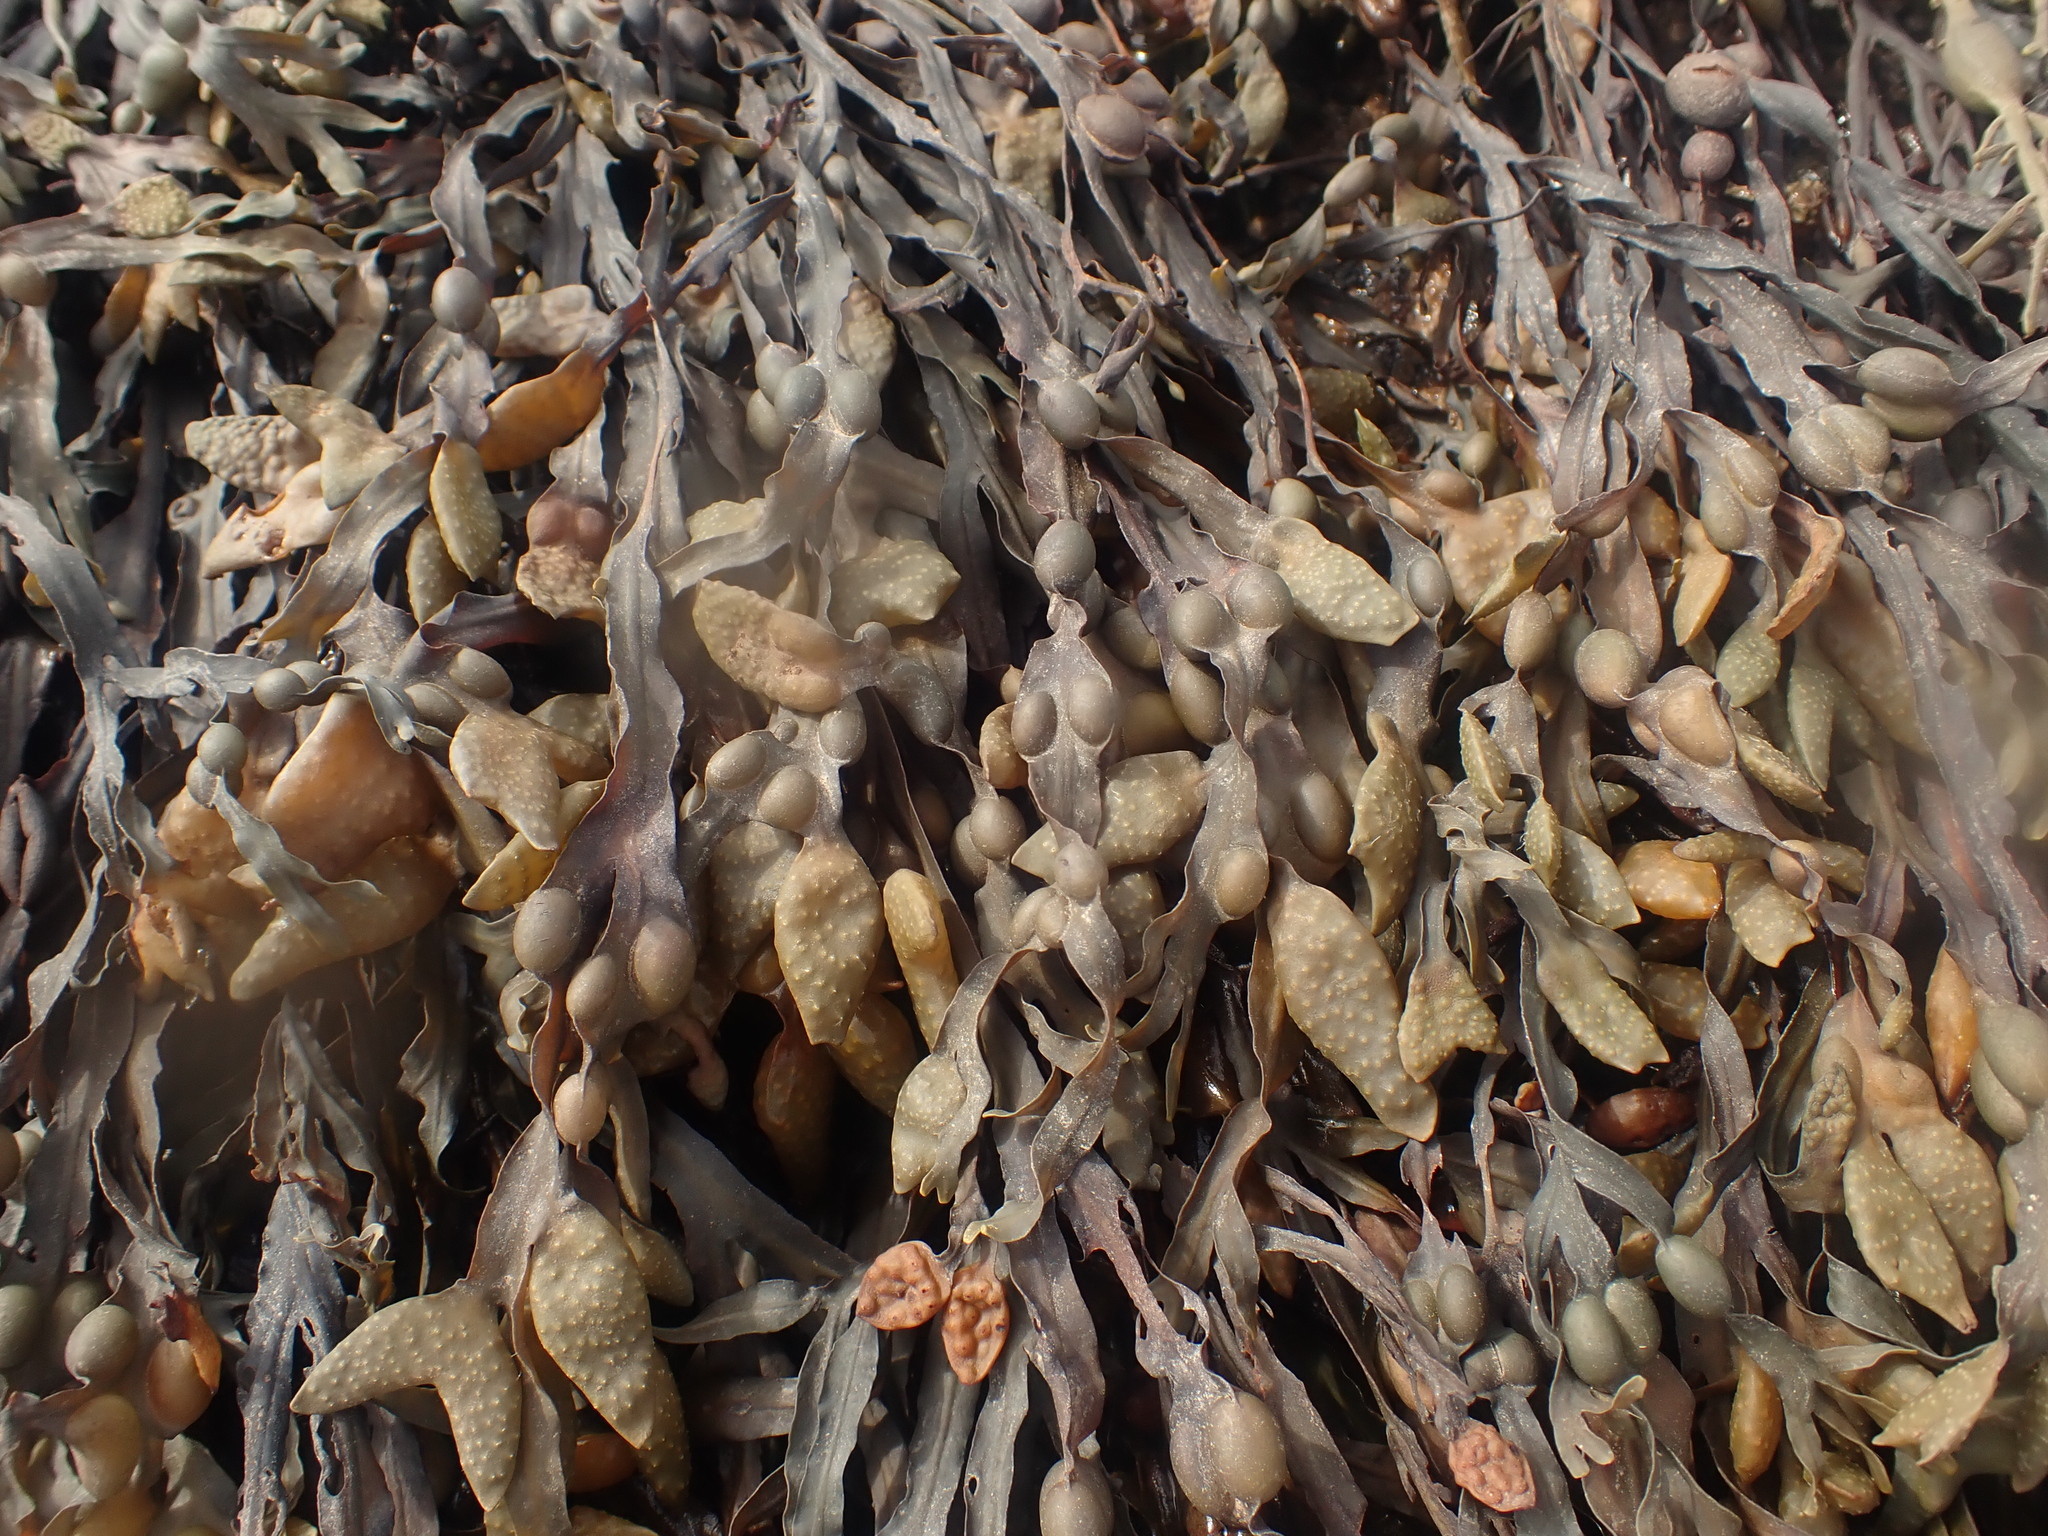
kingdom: Chromista
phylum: Ochrophyta
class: Phaeophyceae
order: Fucales
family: Fucaceae
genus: Fucus
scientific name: Fucus vesiculosus
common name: Bladder wrack
